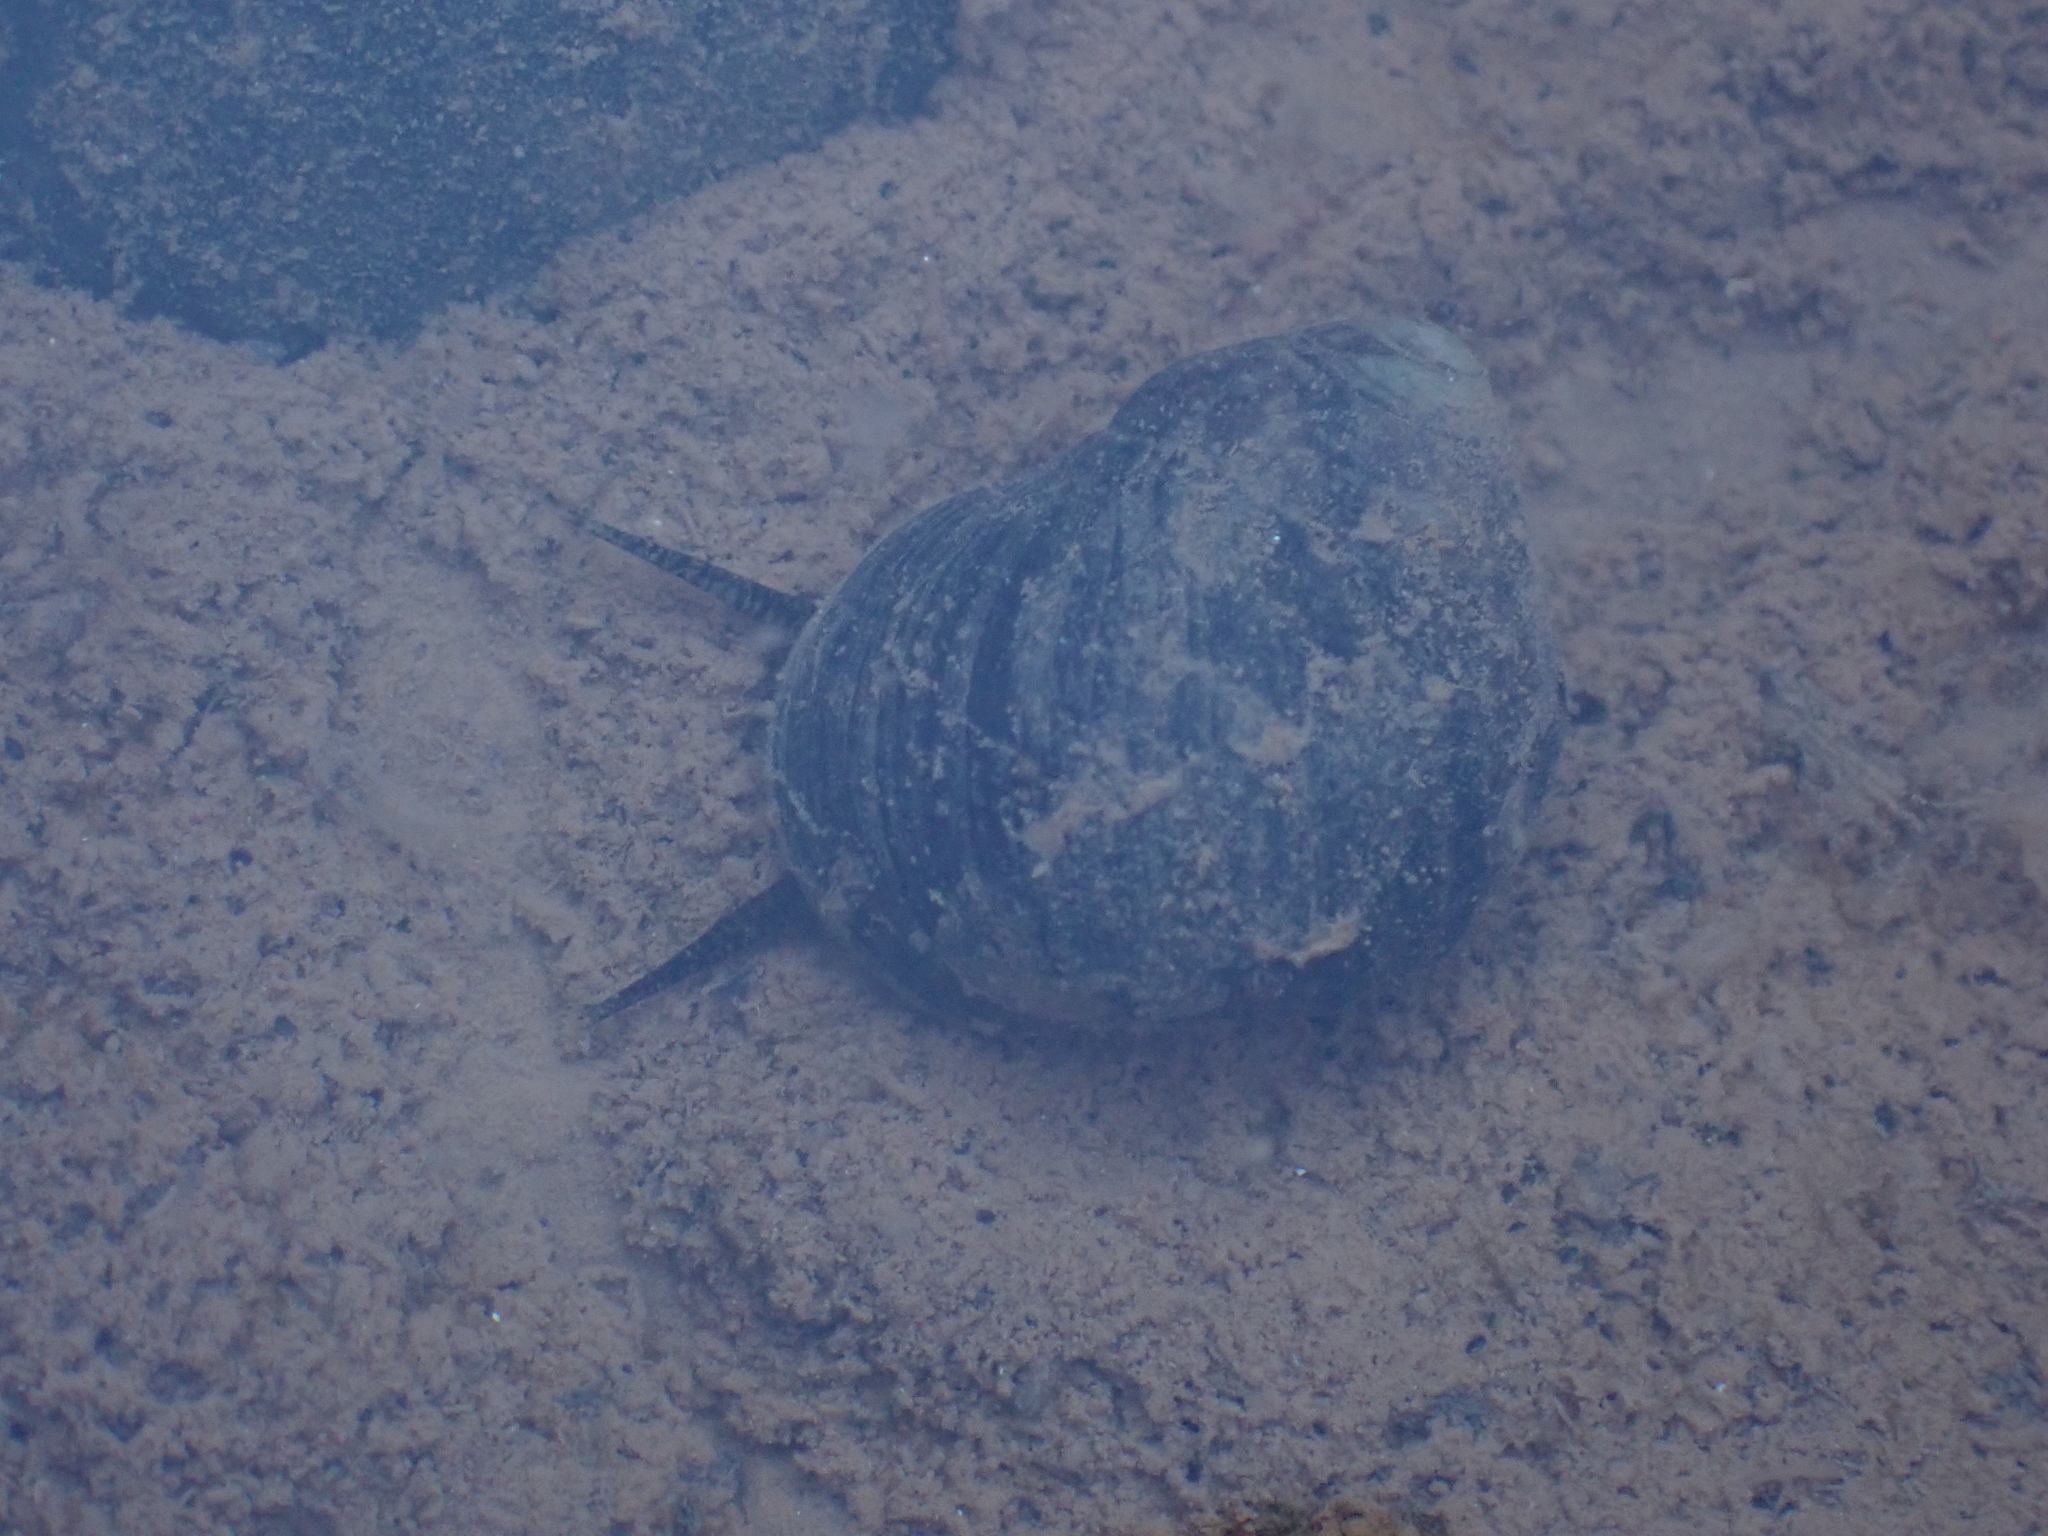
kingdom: Animalia
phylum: Mollusca
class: Gastropoda
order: Littorinimorpha
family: Littorinidae
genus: Littorina
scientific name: Littorina littorea
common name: Common periwinkle
